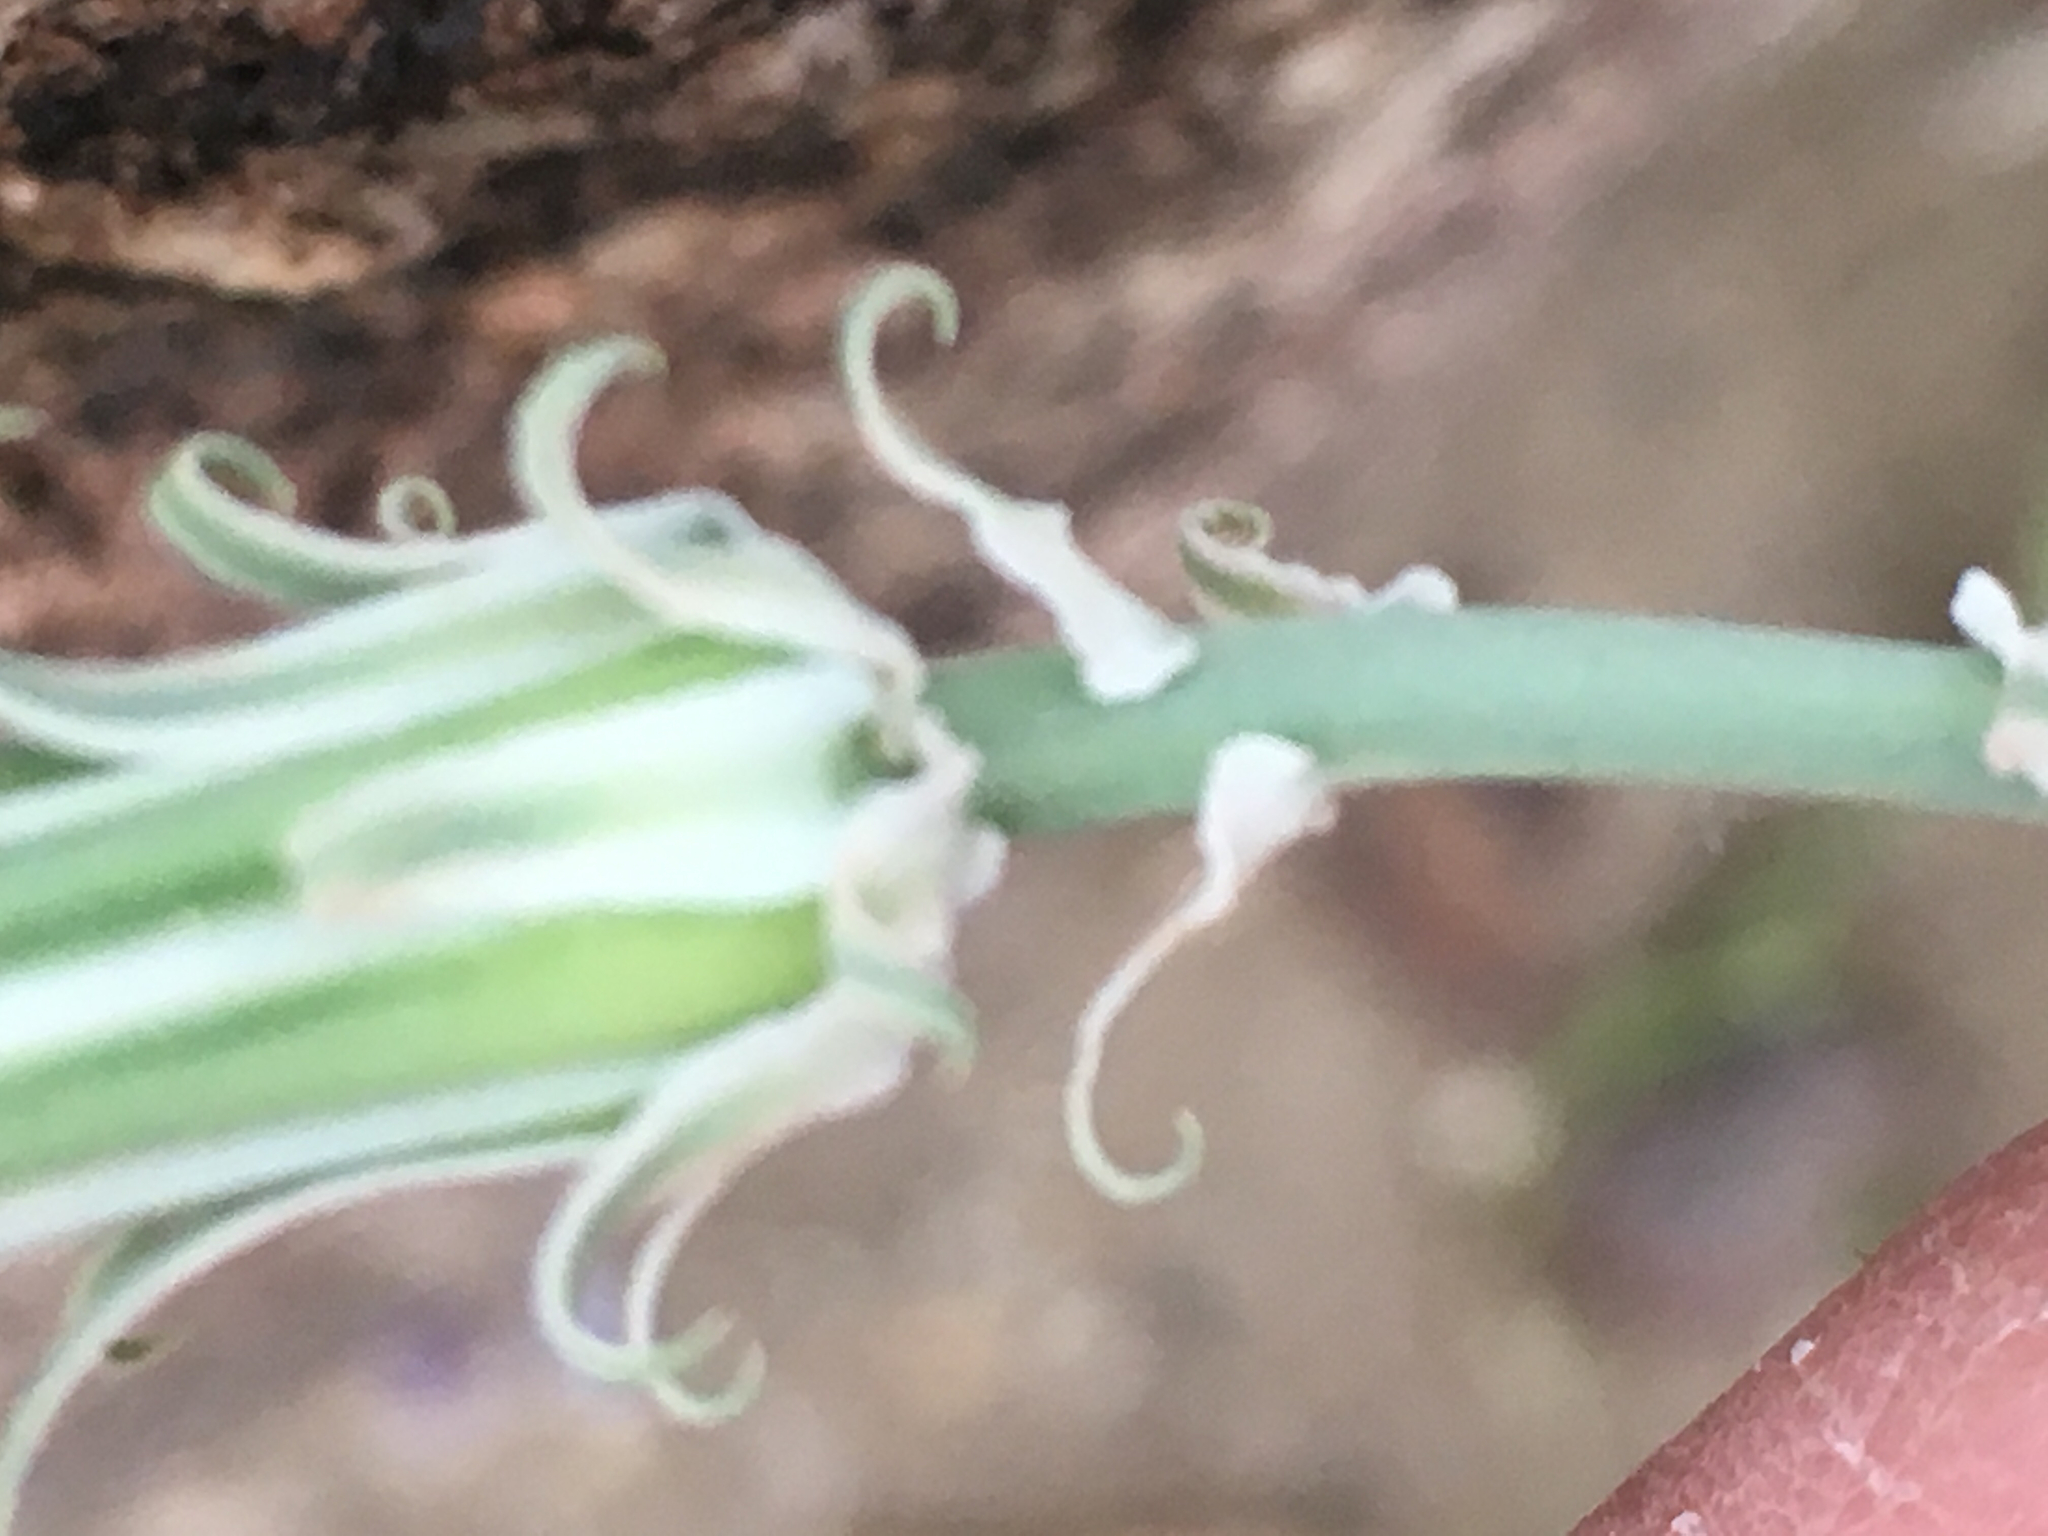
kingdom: Plantae
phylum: Tracheophyta
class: Magnoliopsida
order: Asterales
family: Asteraceae
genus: Rafinesquia
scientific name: Rafinesquia neomexicana
